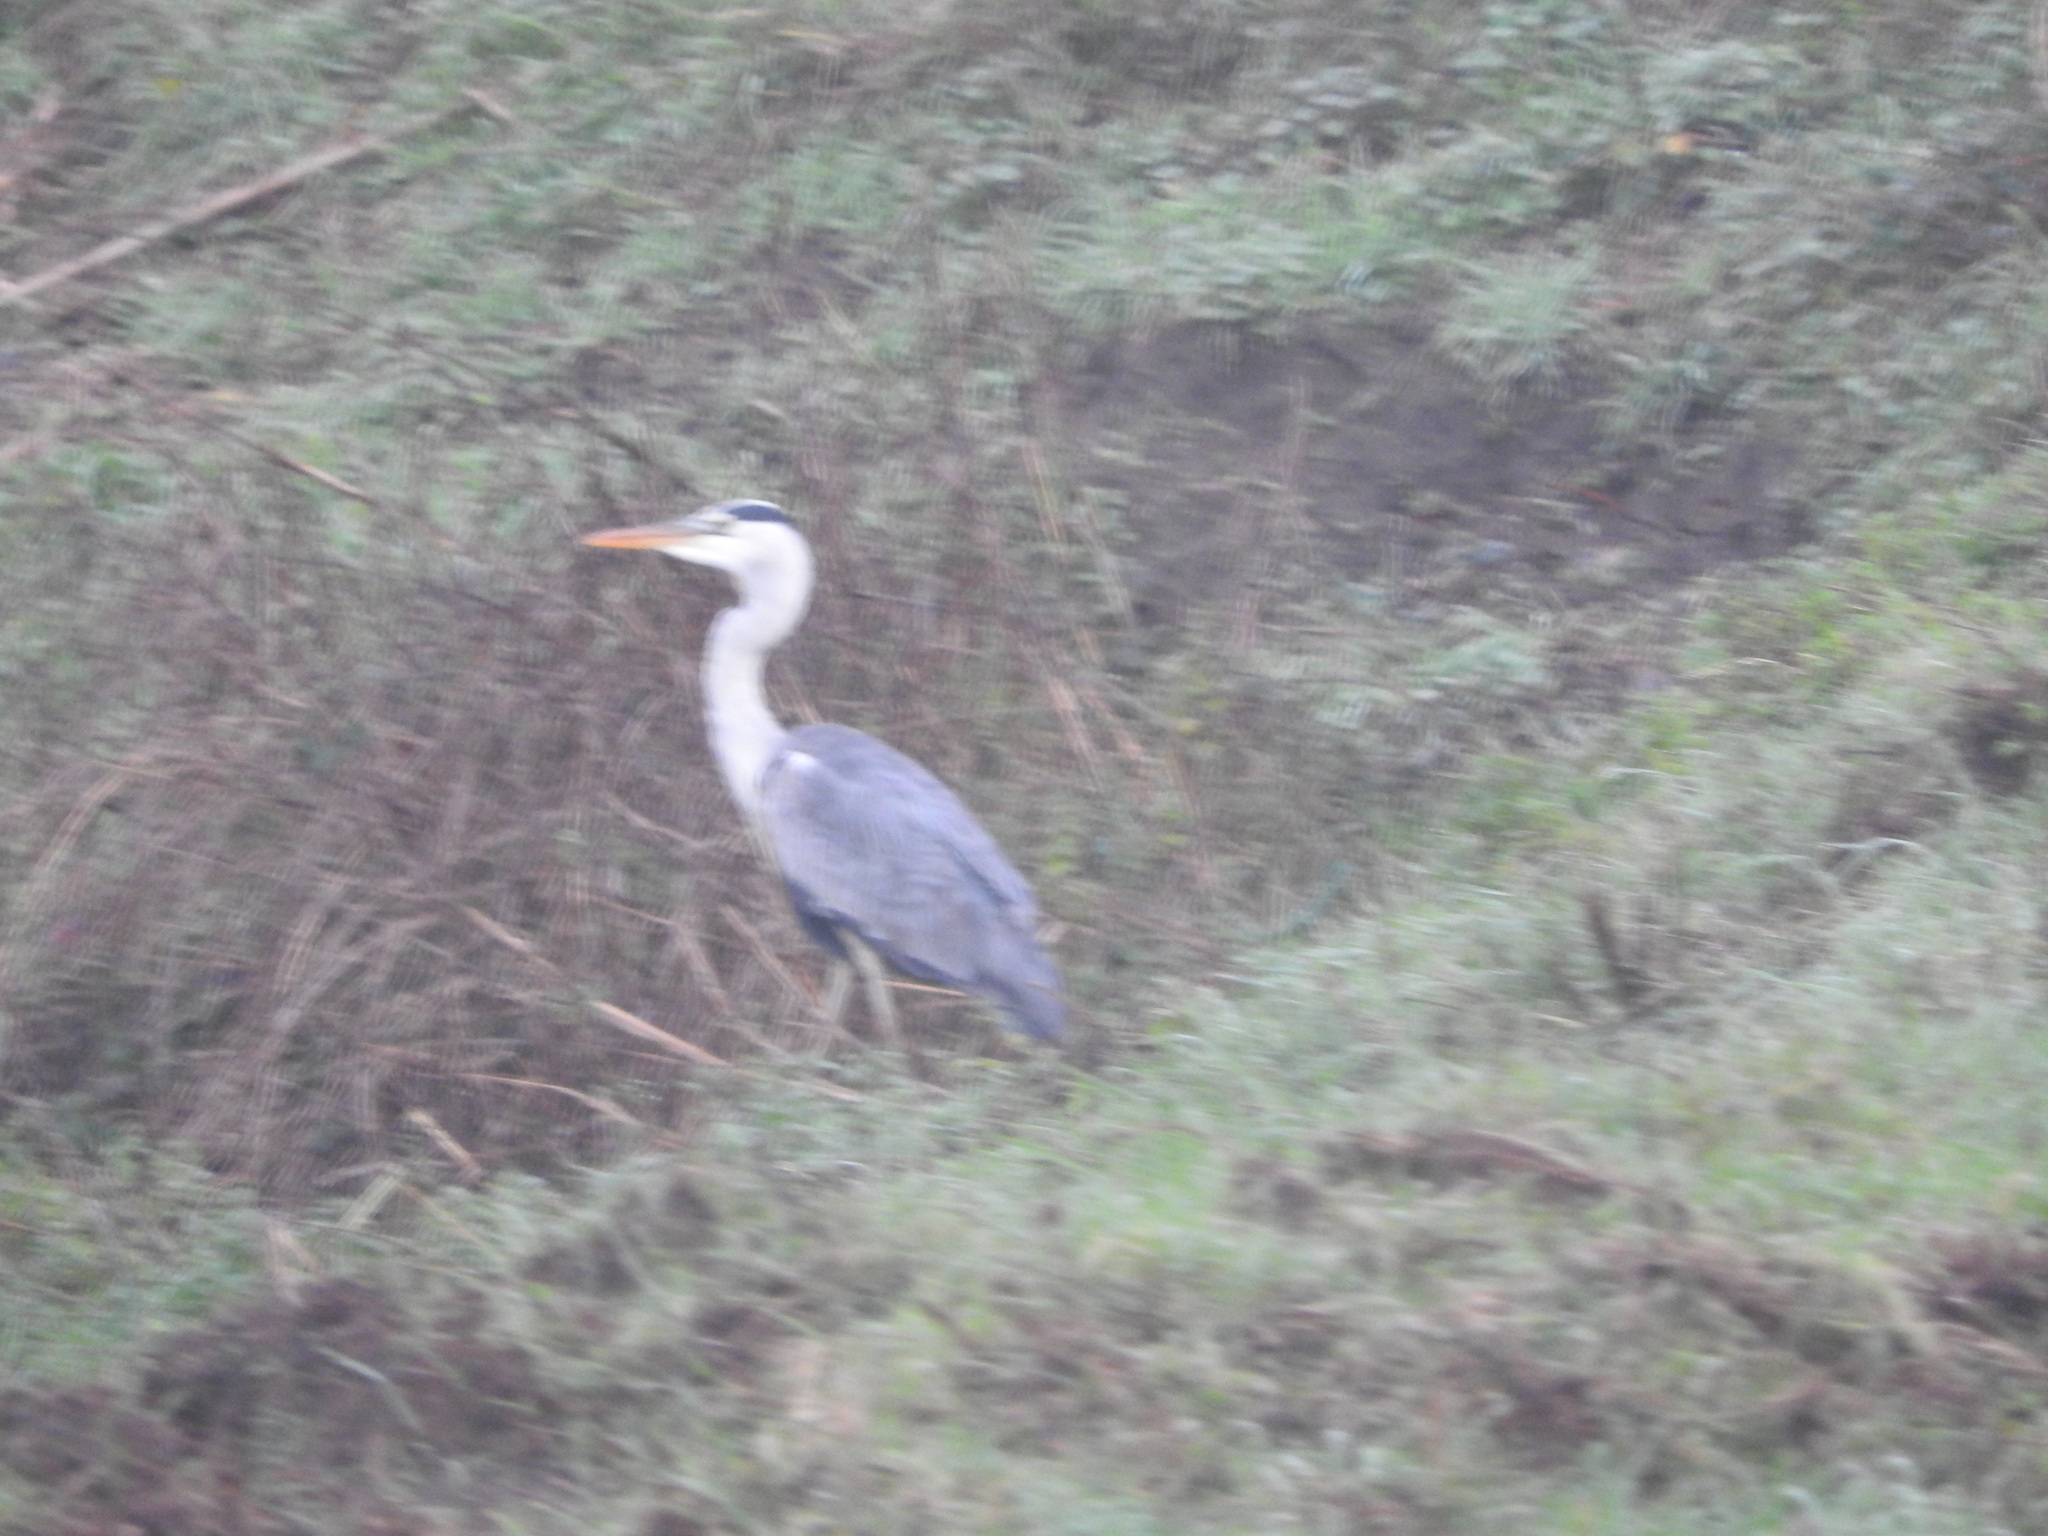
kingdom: Animalia
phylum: Chordata
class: Aves
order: Pelecaniformes
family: Ardeidae
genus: Ardea
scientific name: Ardea cinerea
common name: Grey heron
